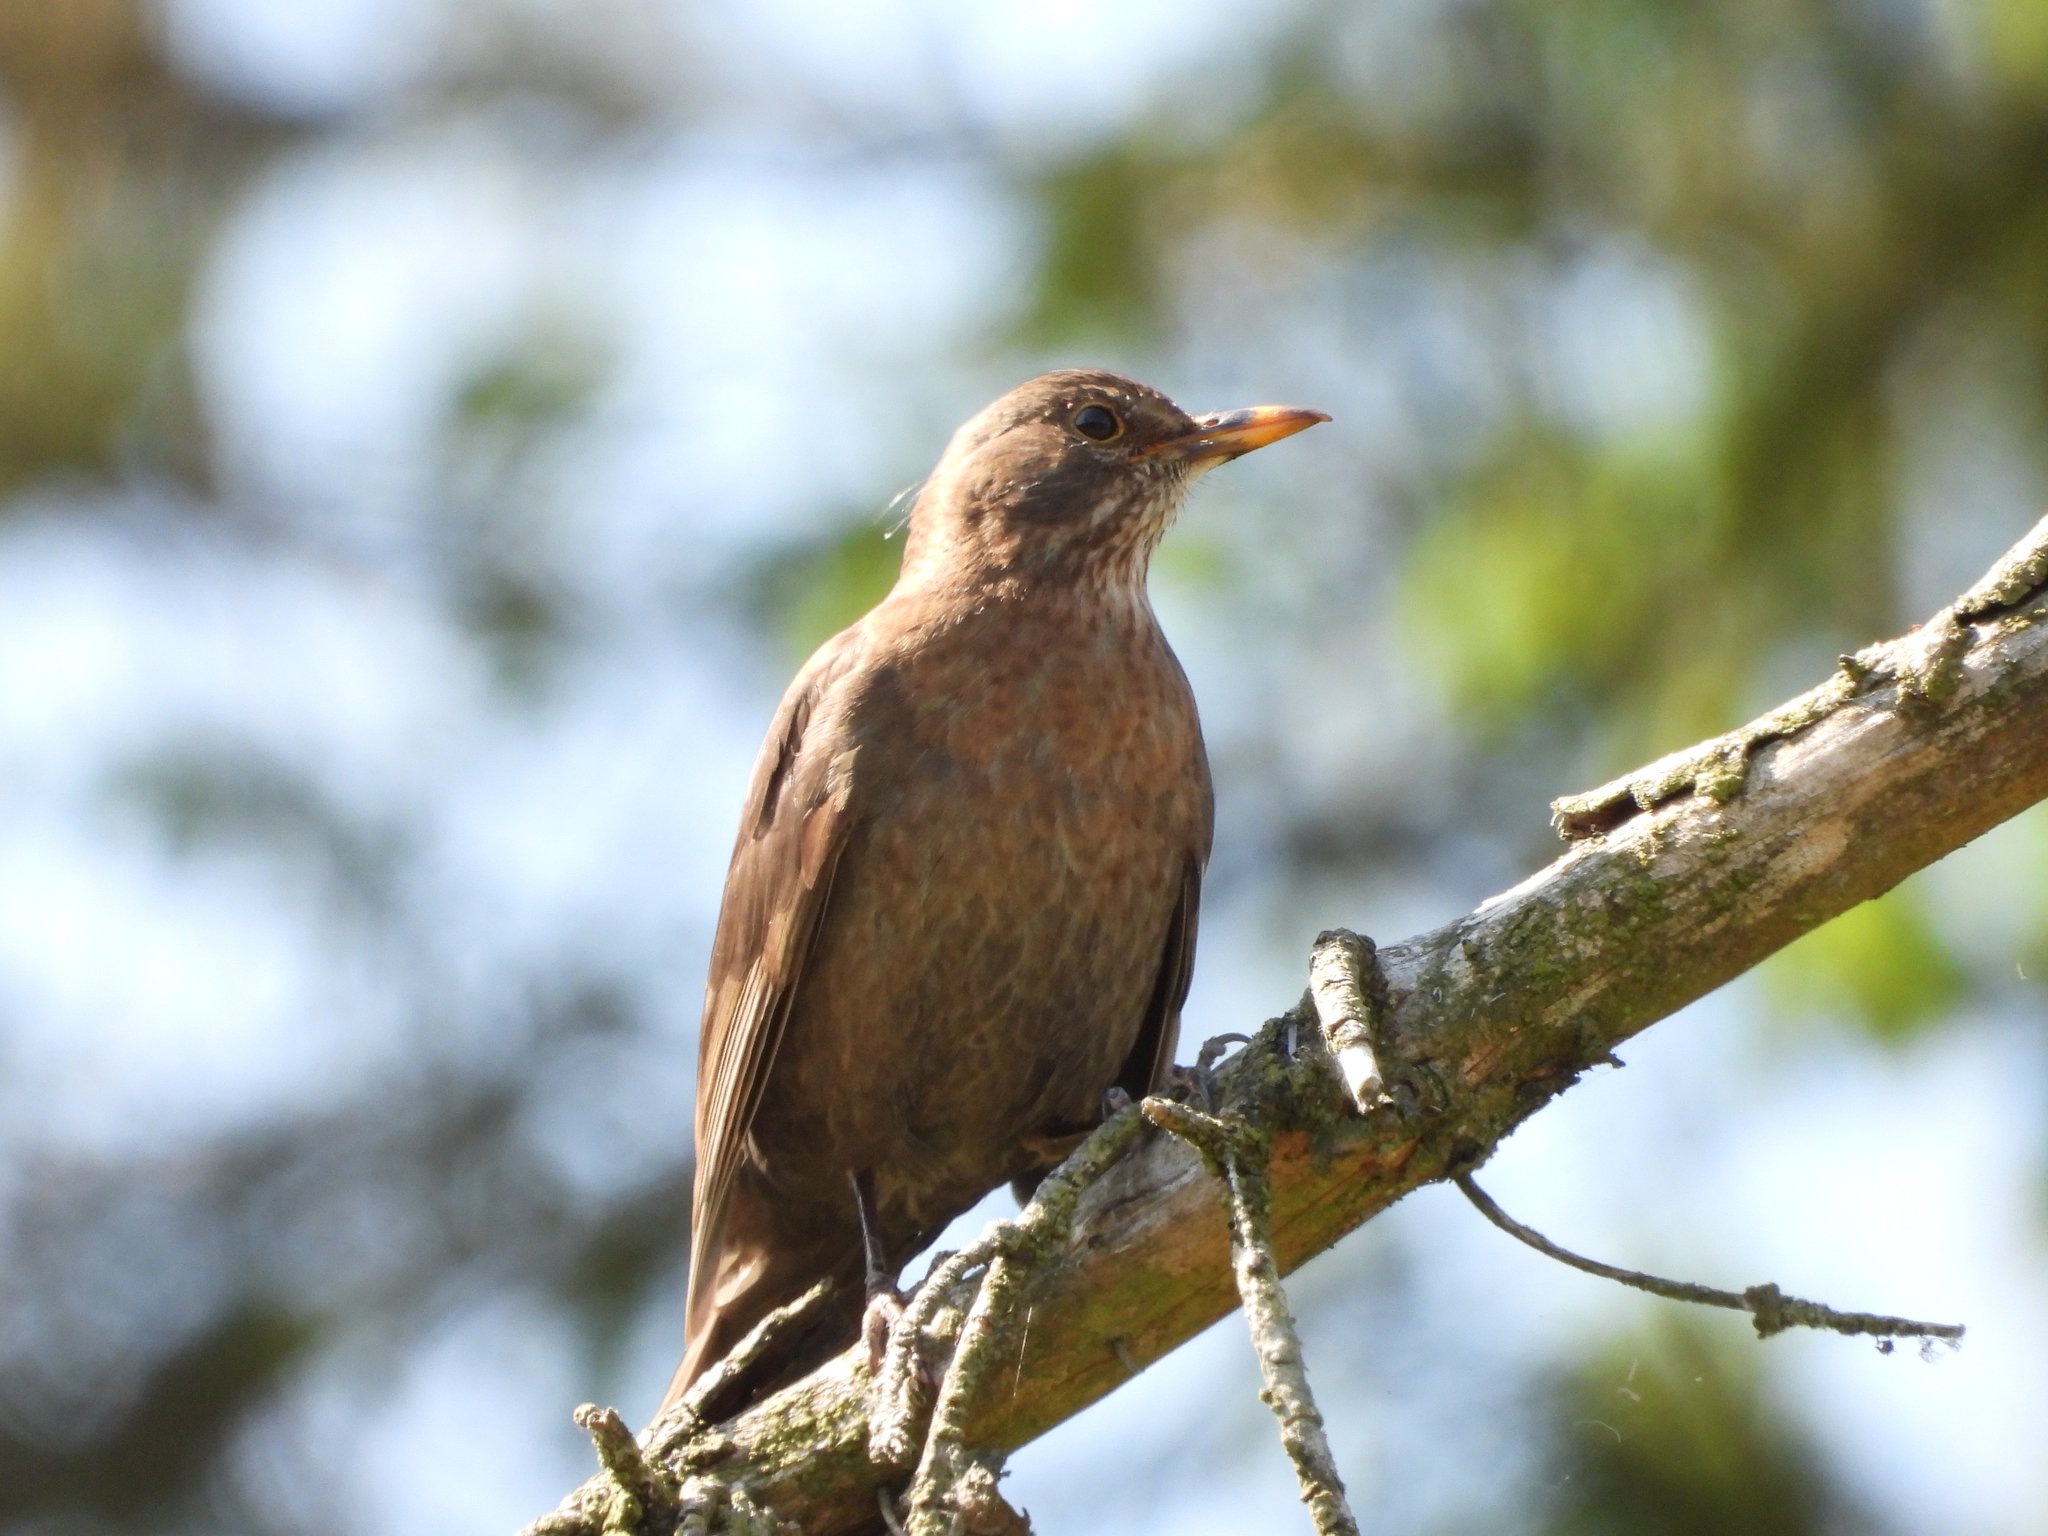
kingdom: Animalia
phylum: Chordata
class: Aves
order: Passeriformes
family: Turdidae
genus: Turdus
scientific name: Turdus merula
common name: Common blackbird
